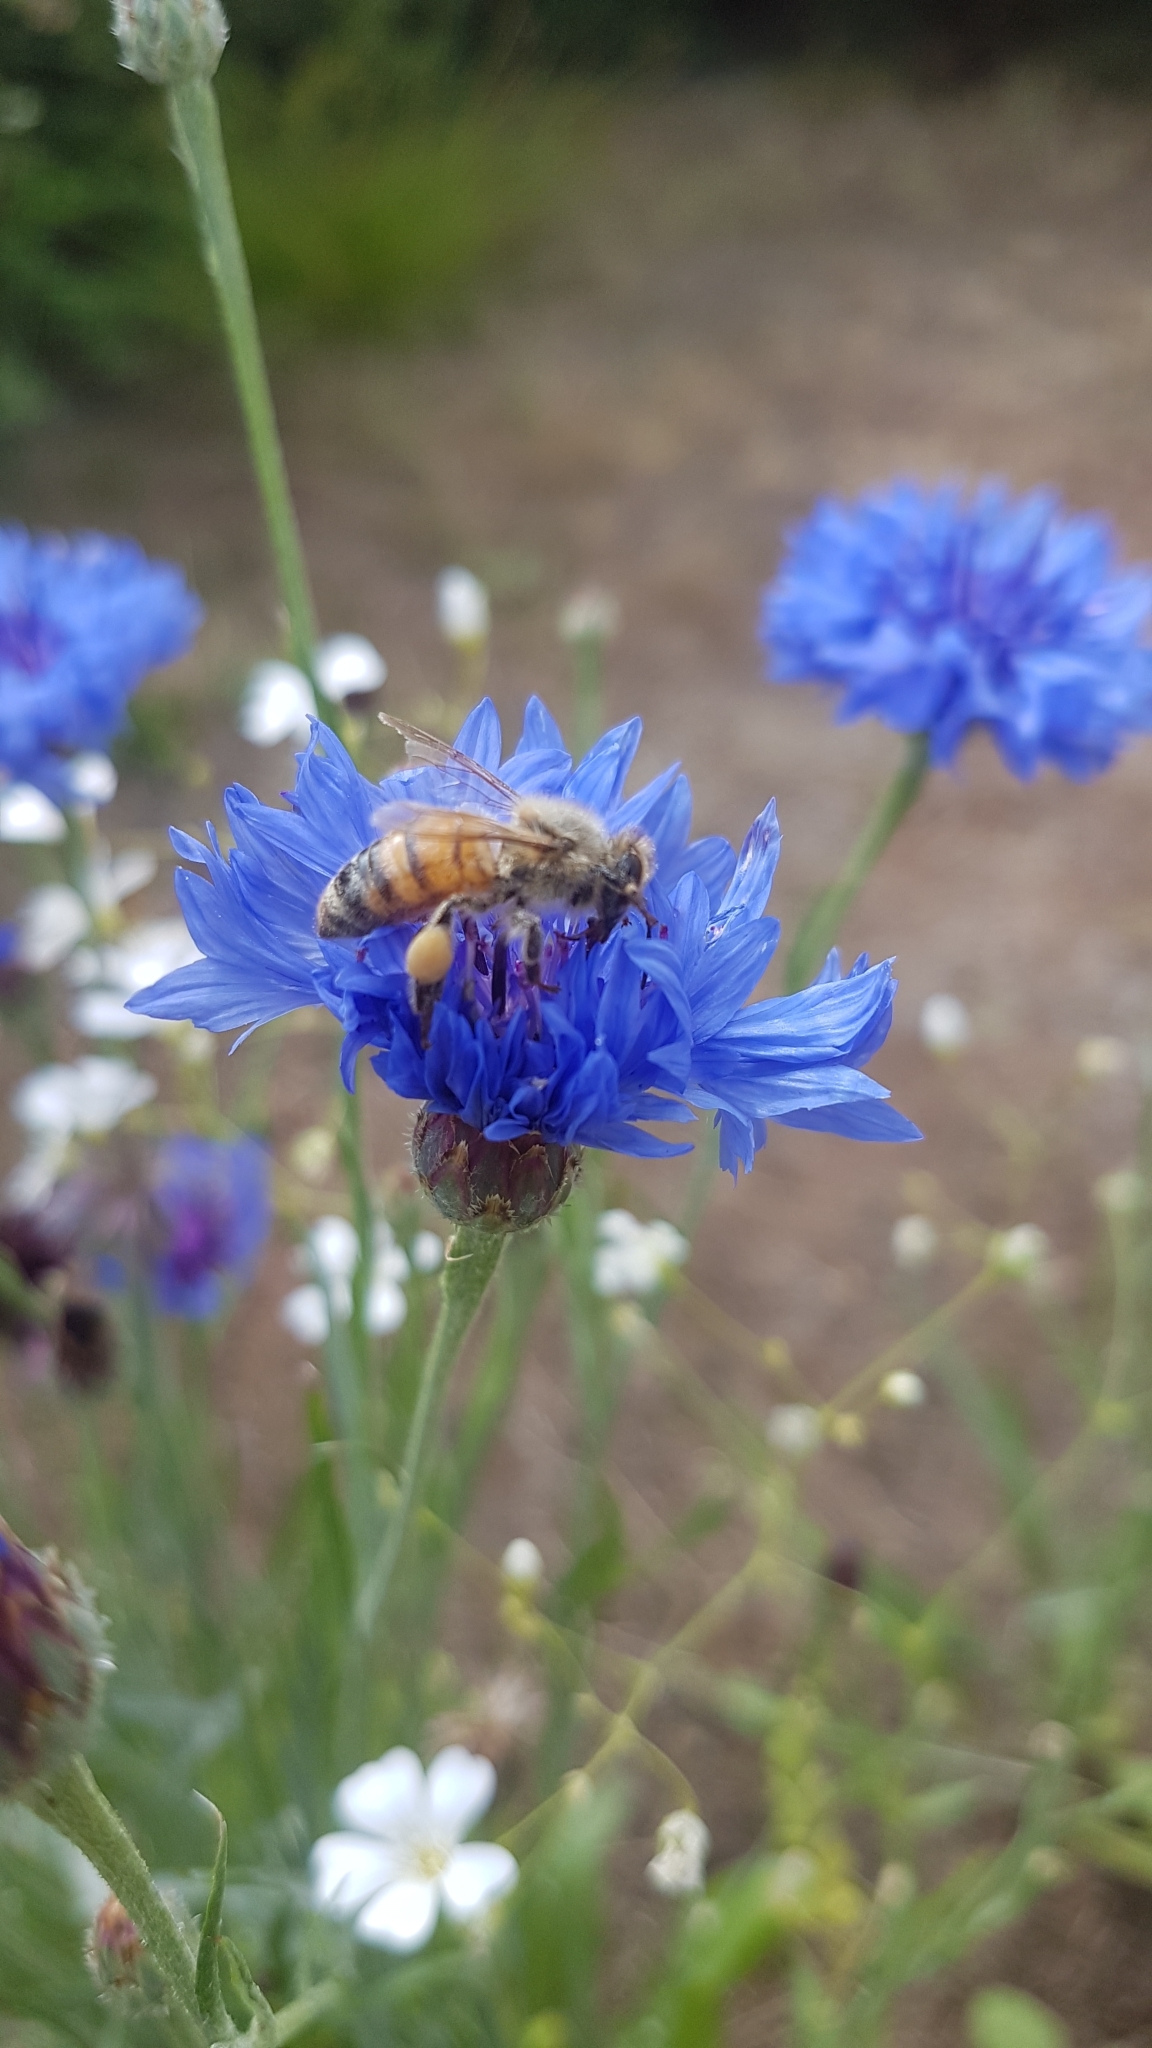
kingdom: Animalia
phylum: Arthropoda
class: Insecta
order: Hymenoptera
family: Apidae
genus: Apis
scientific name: Apis mellifera
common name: Honey bee
